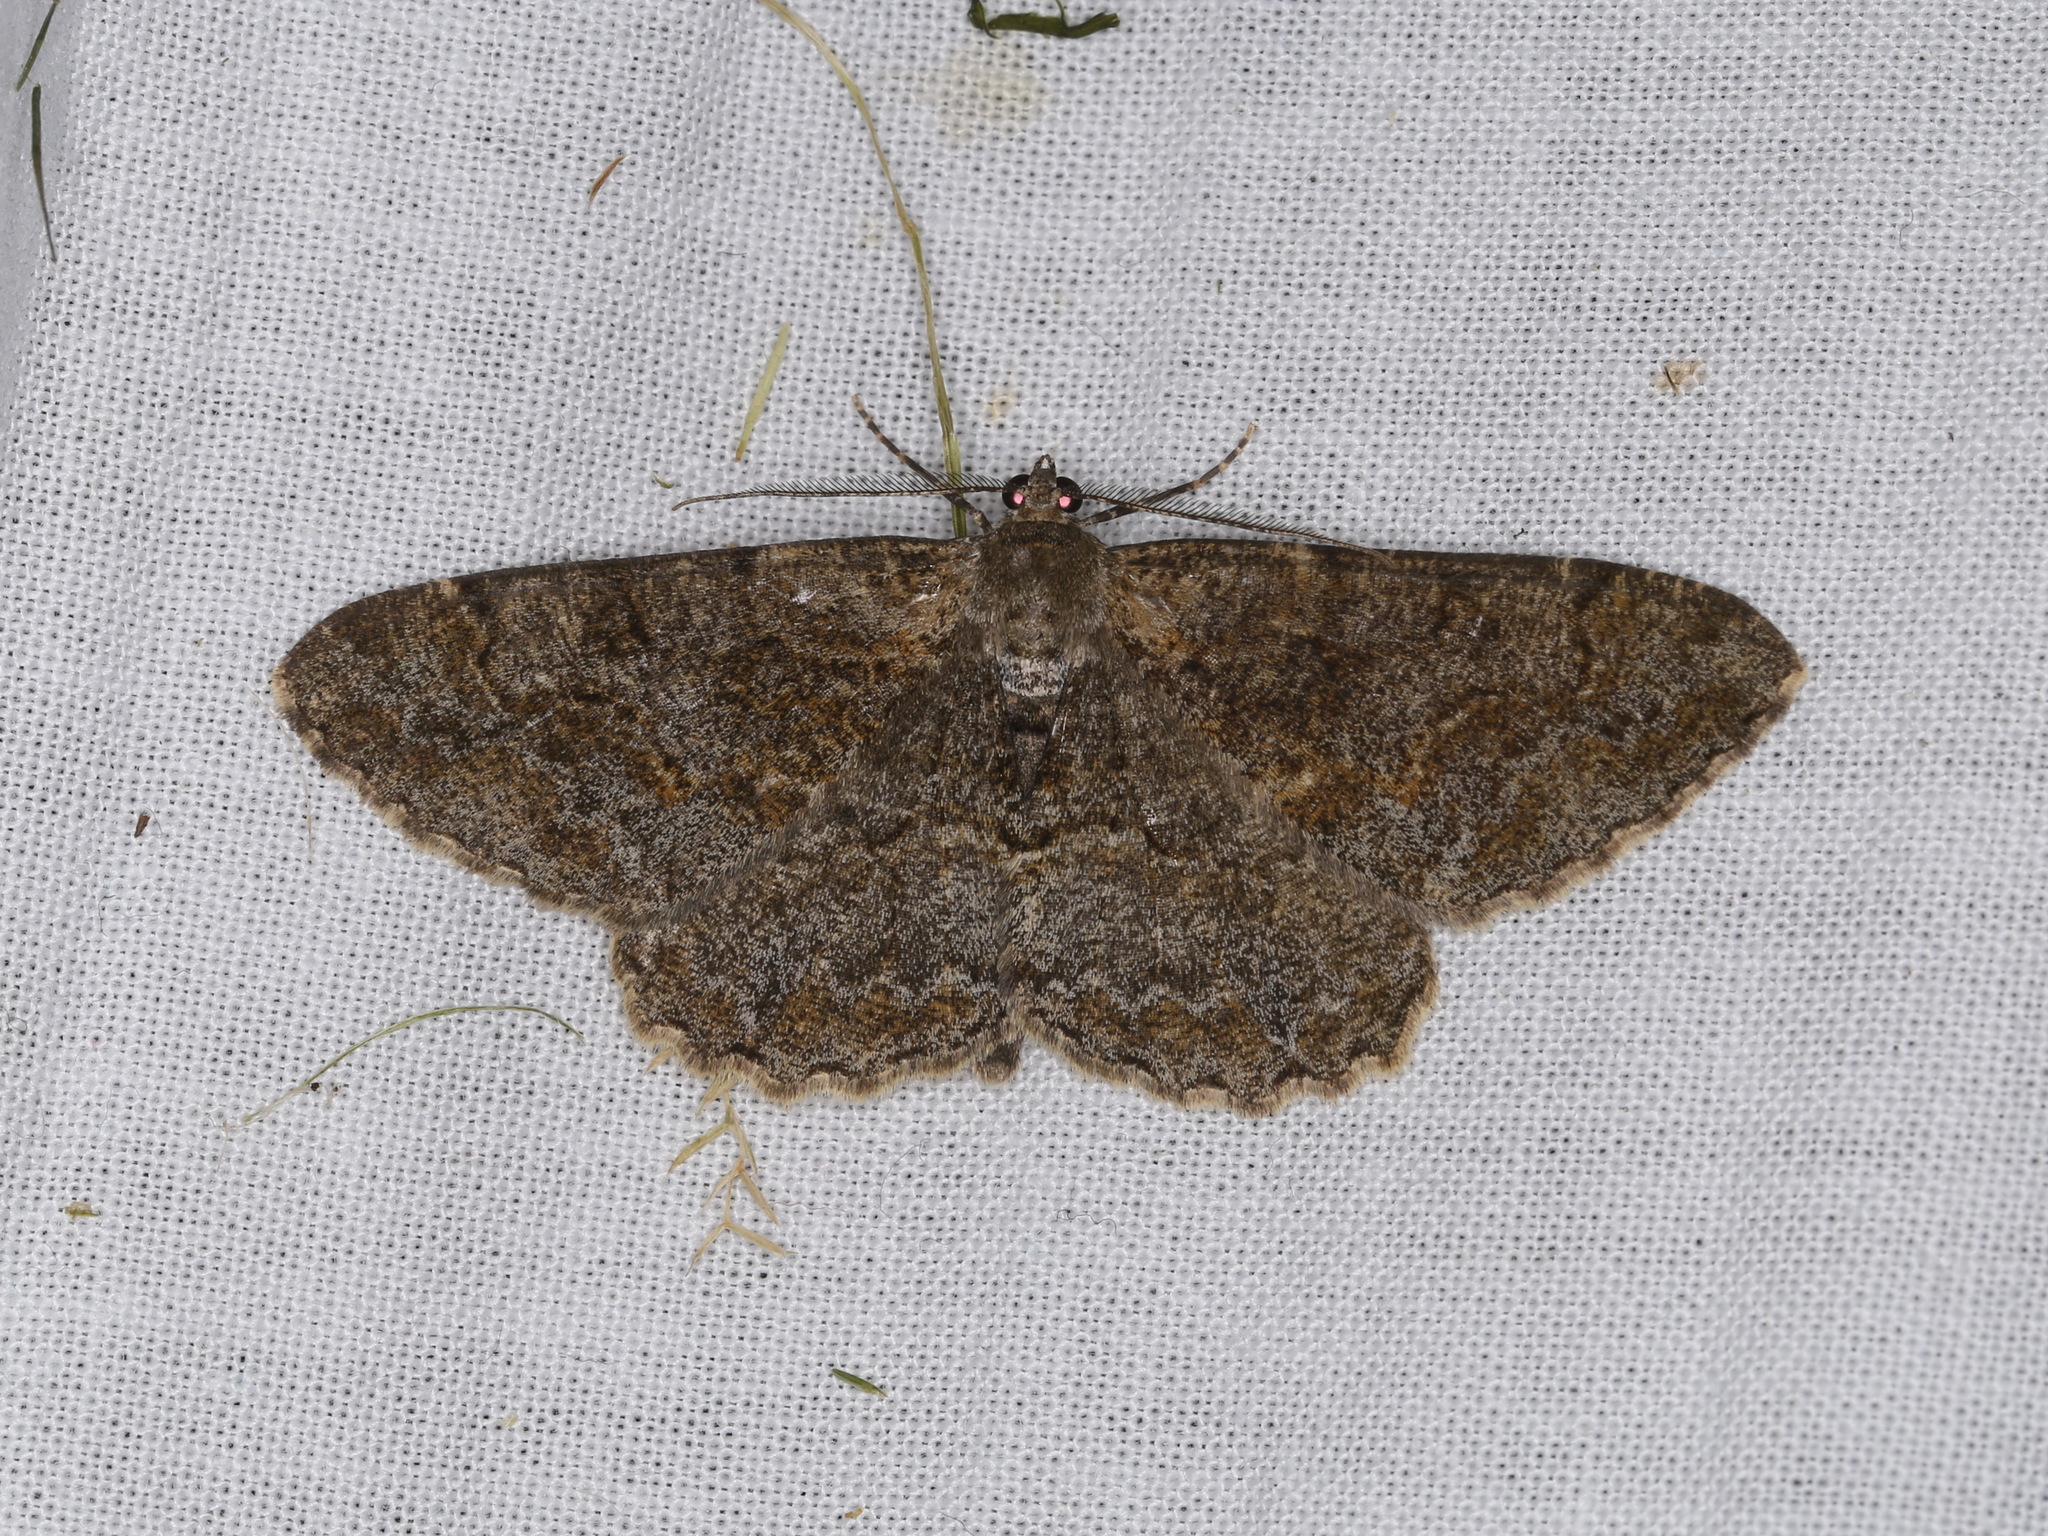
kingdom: Animalia
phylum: Arthropoda
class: Insecta
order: Lepidoptera
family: Geometridae
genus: Alcis
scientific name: Alcis repandata
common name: Mottled beauty
